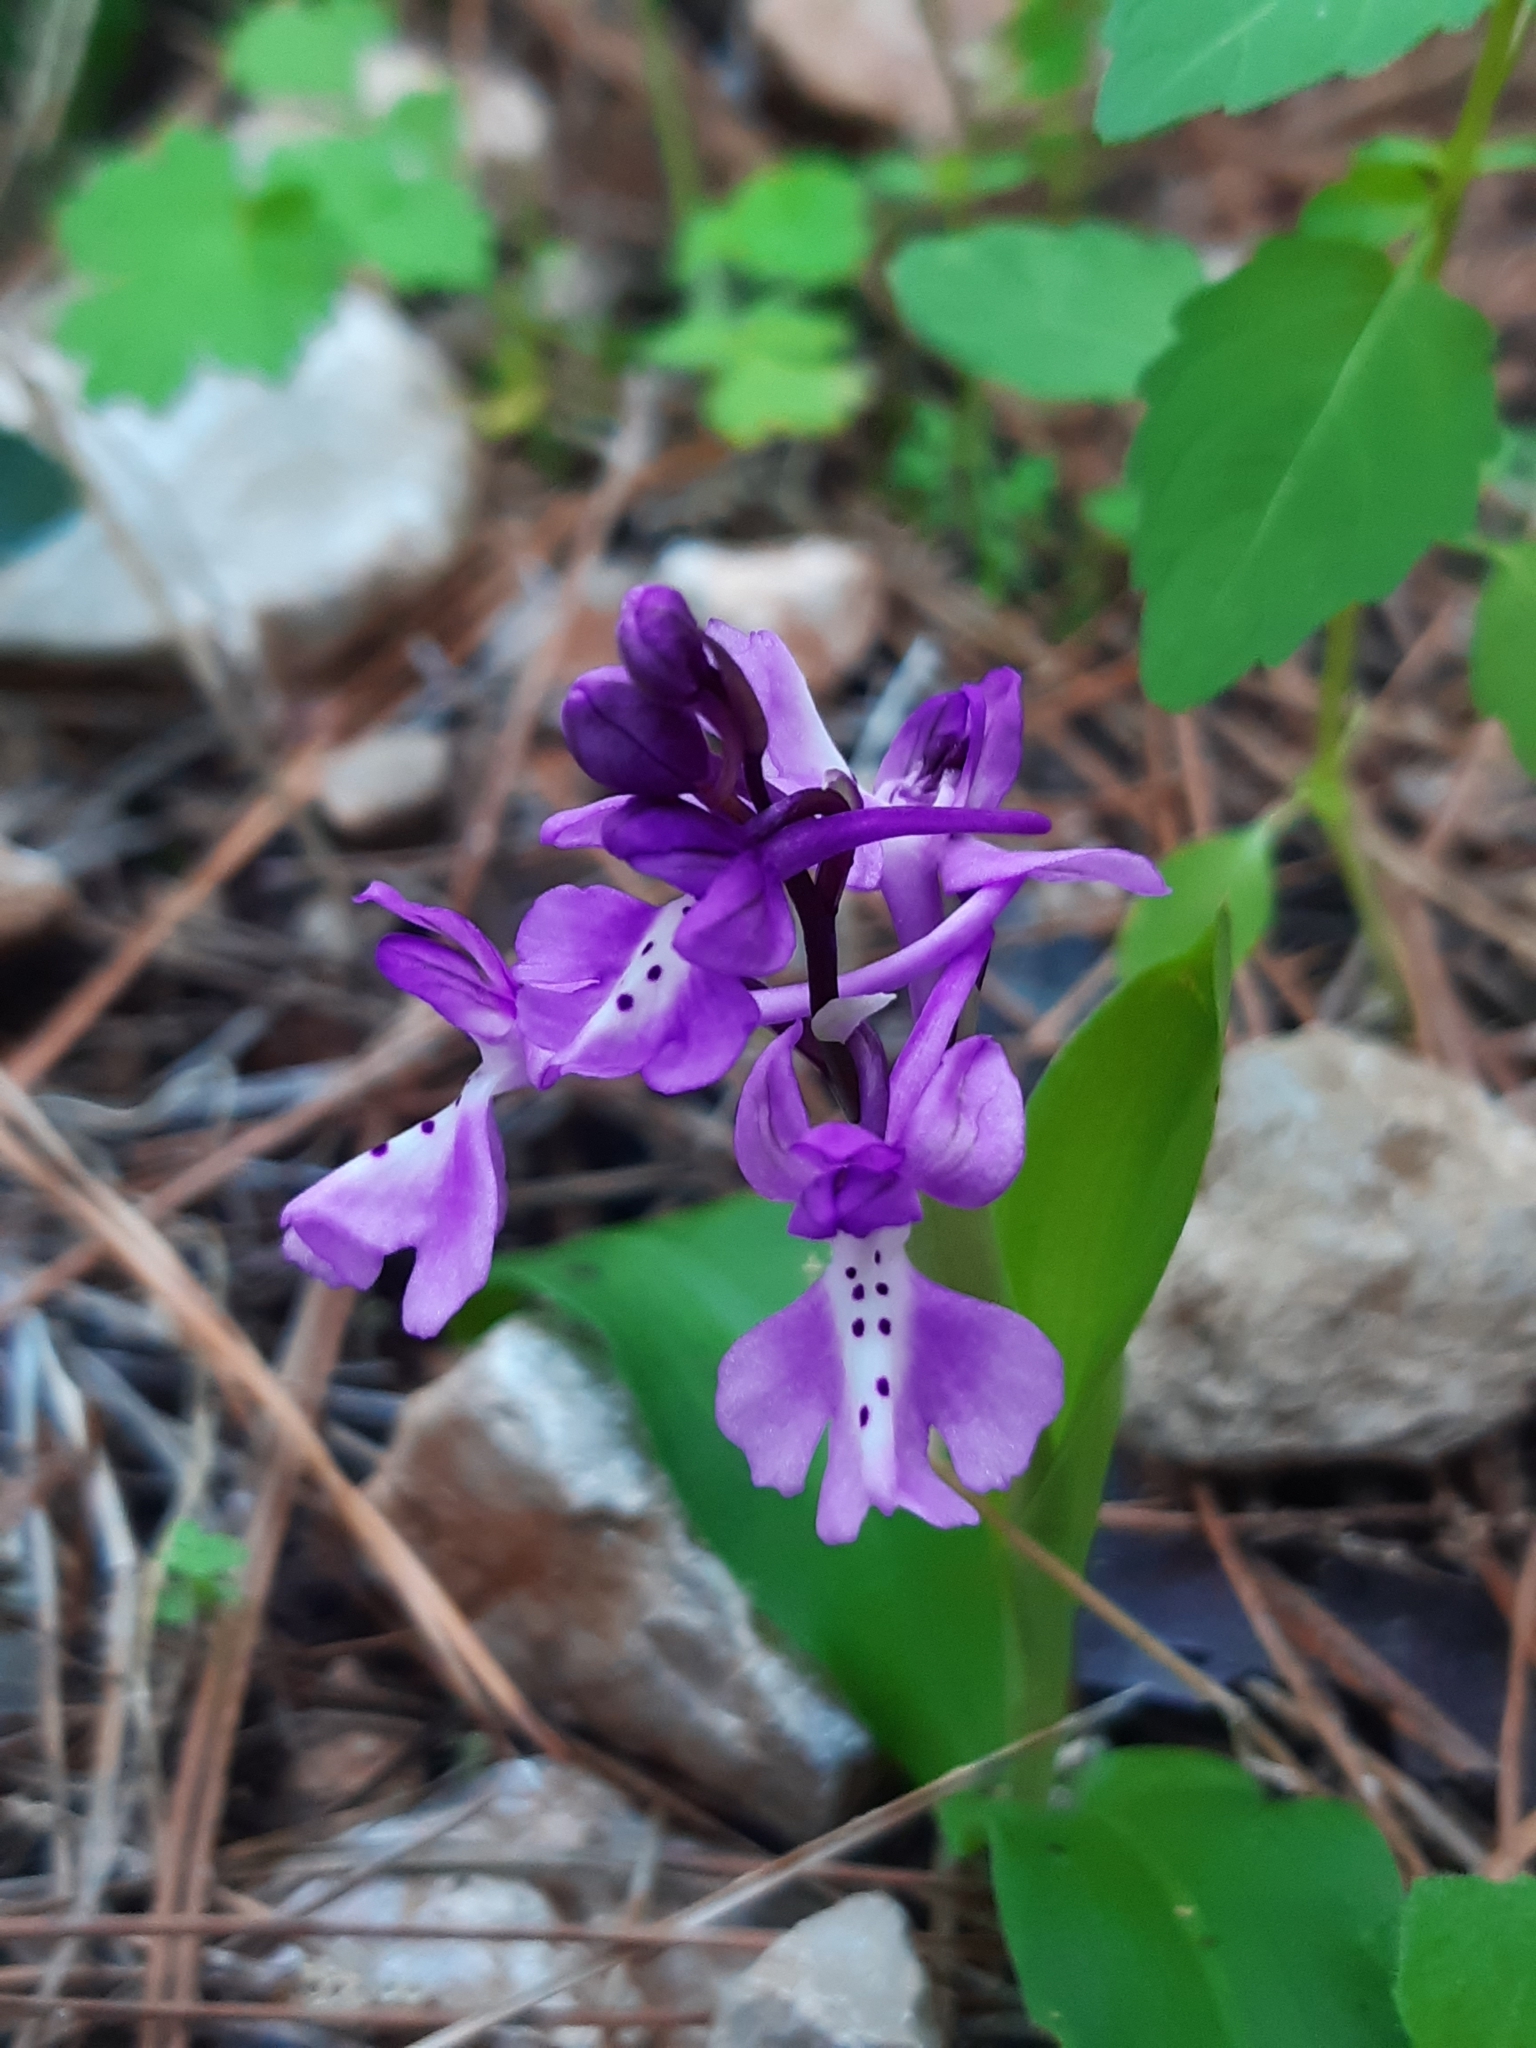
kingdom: Plantae
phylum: Tracheophyta
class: Liliopsida
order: Asparagales
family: Orchidaceae
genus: Orchis
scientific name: Orchis anatolica
